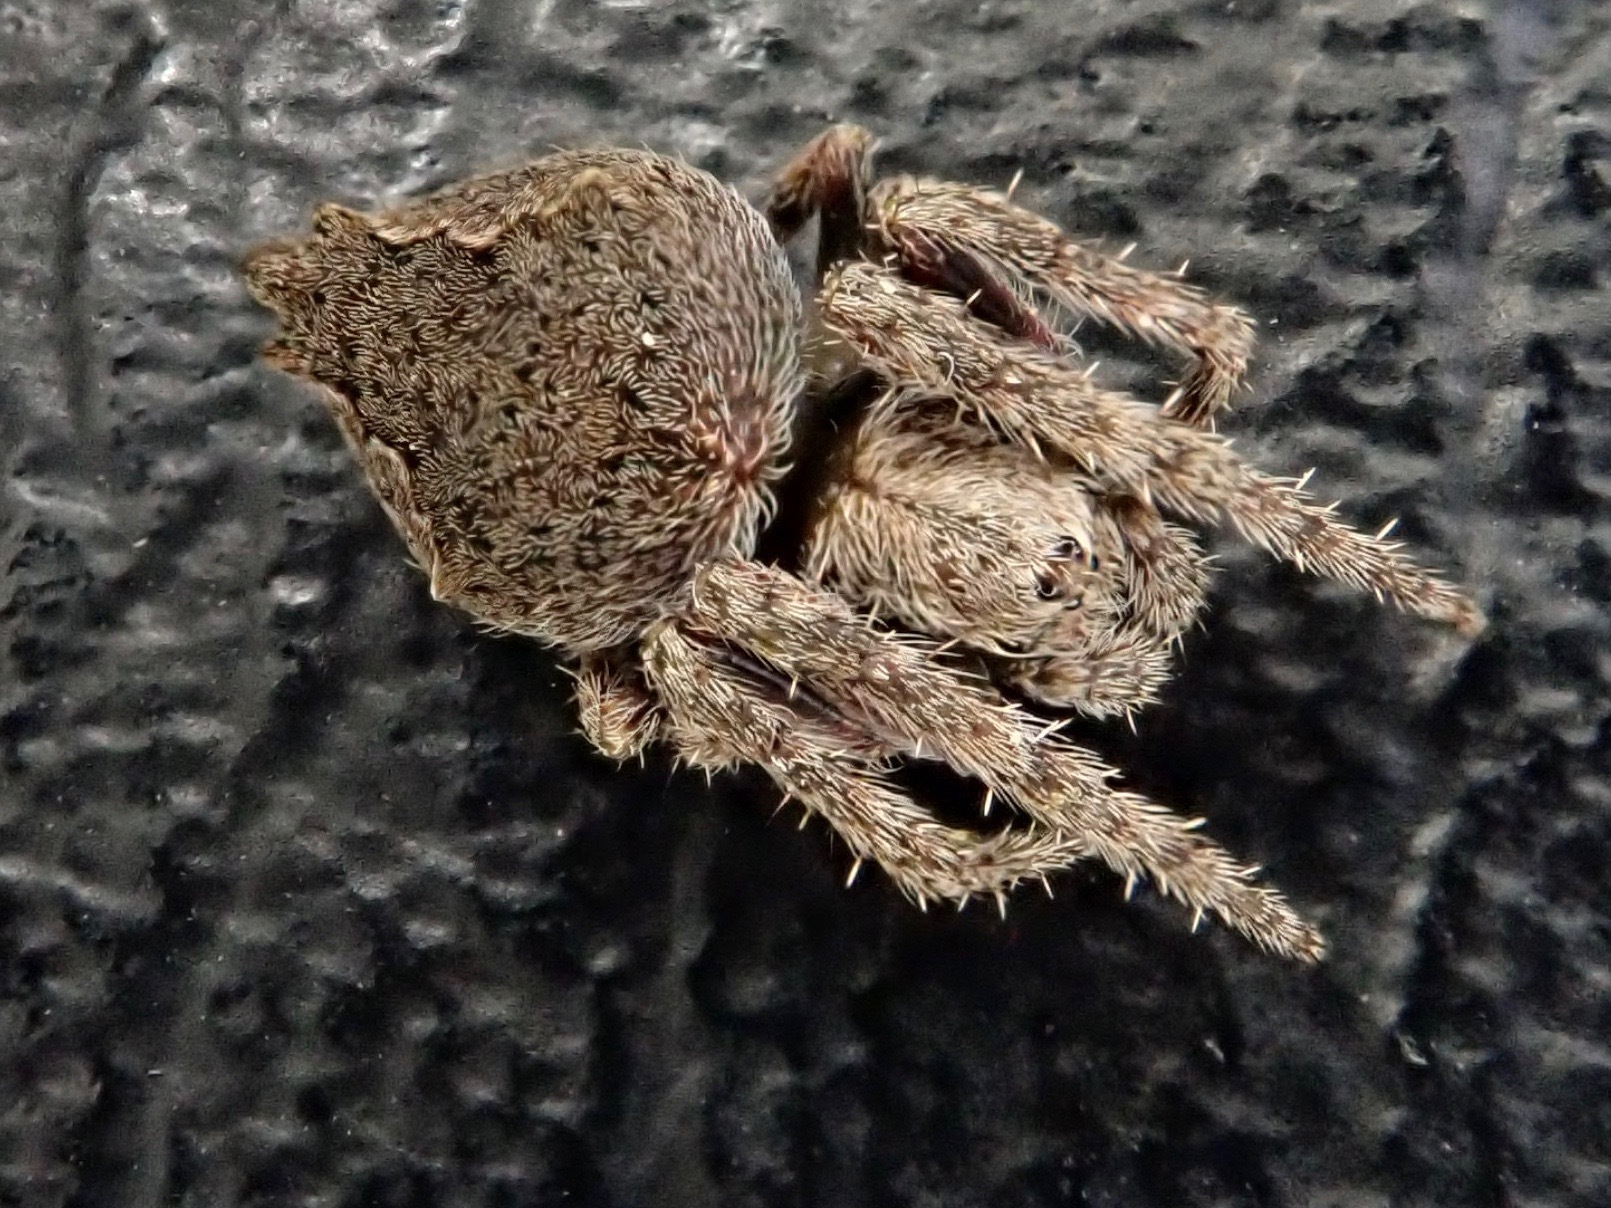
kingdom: Animalia
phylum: Arthropoda
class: Arachnida
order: Araneae
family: Araneidae
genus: Eriophora
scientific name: Eriophora pustulosa
